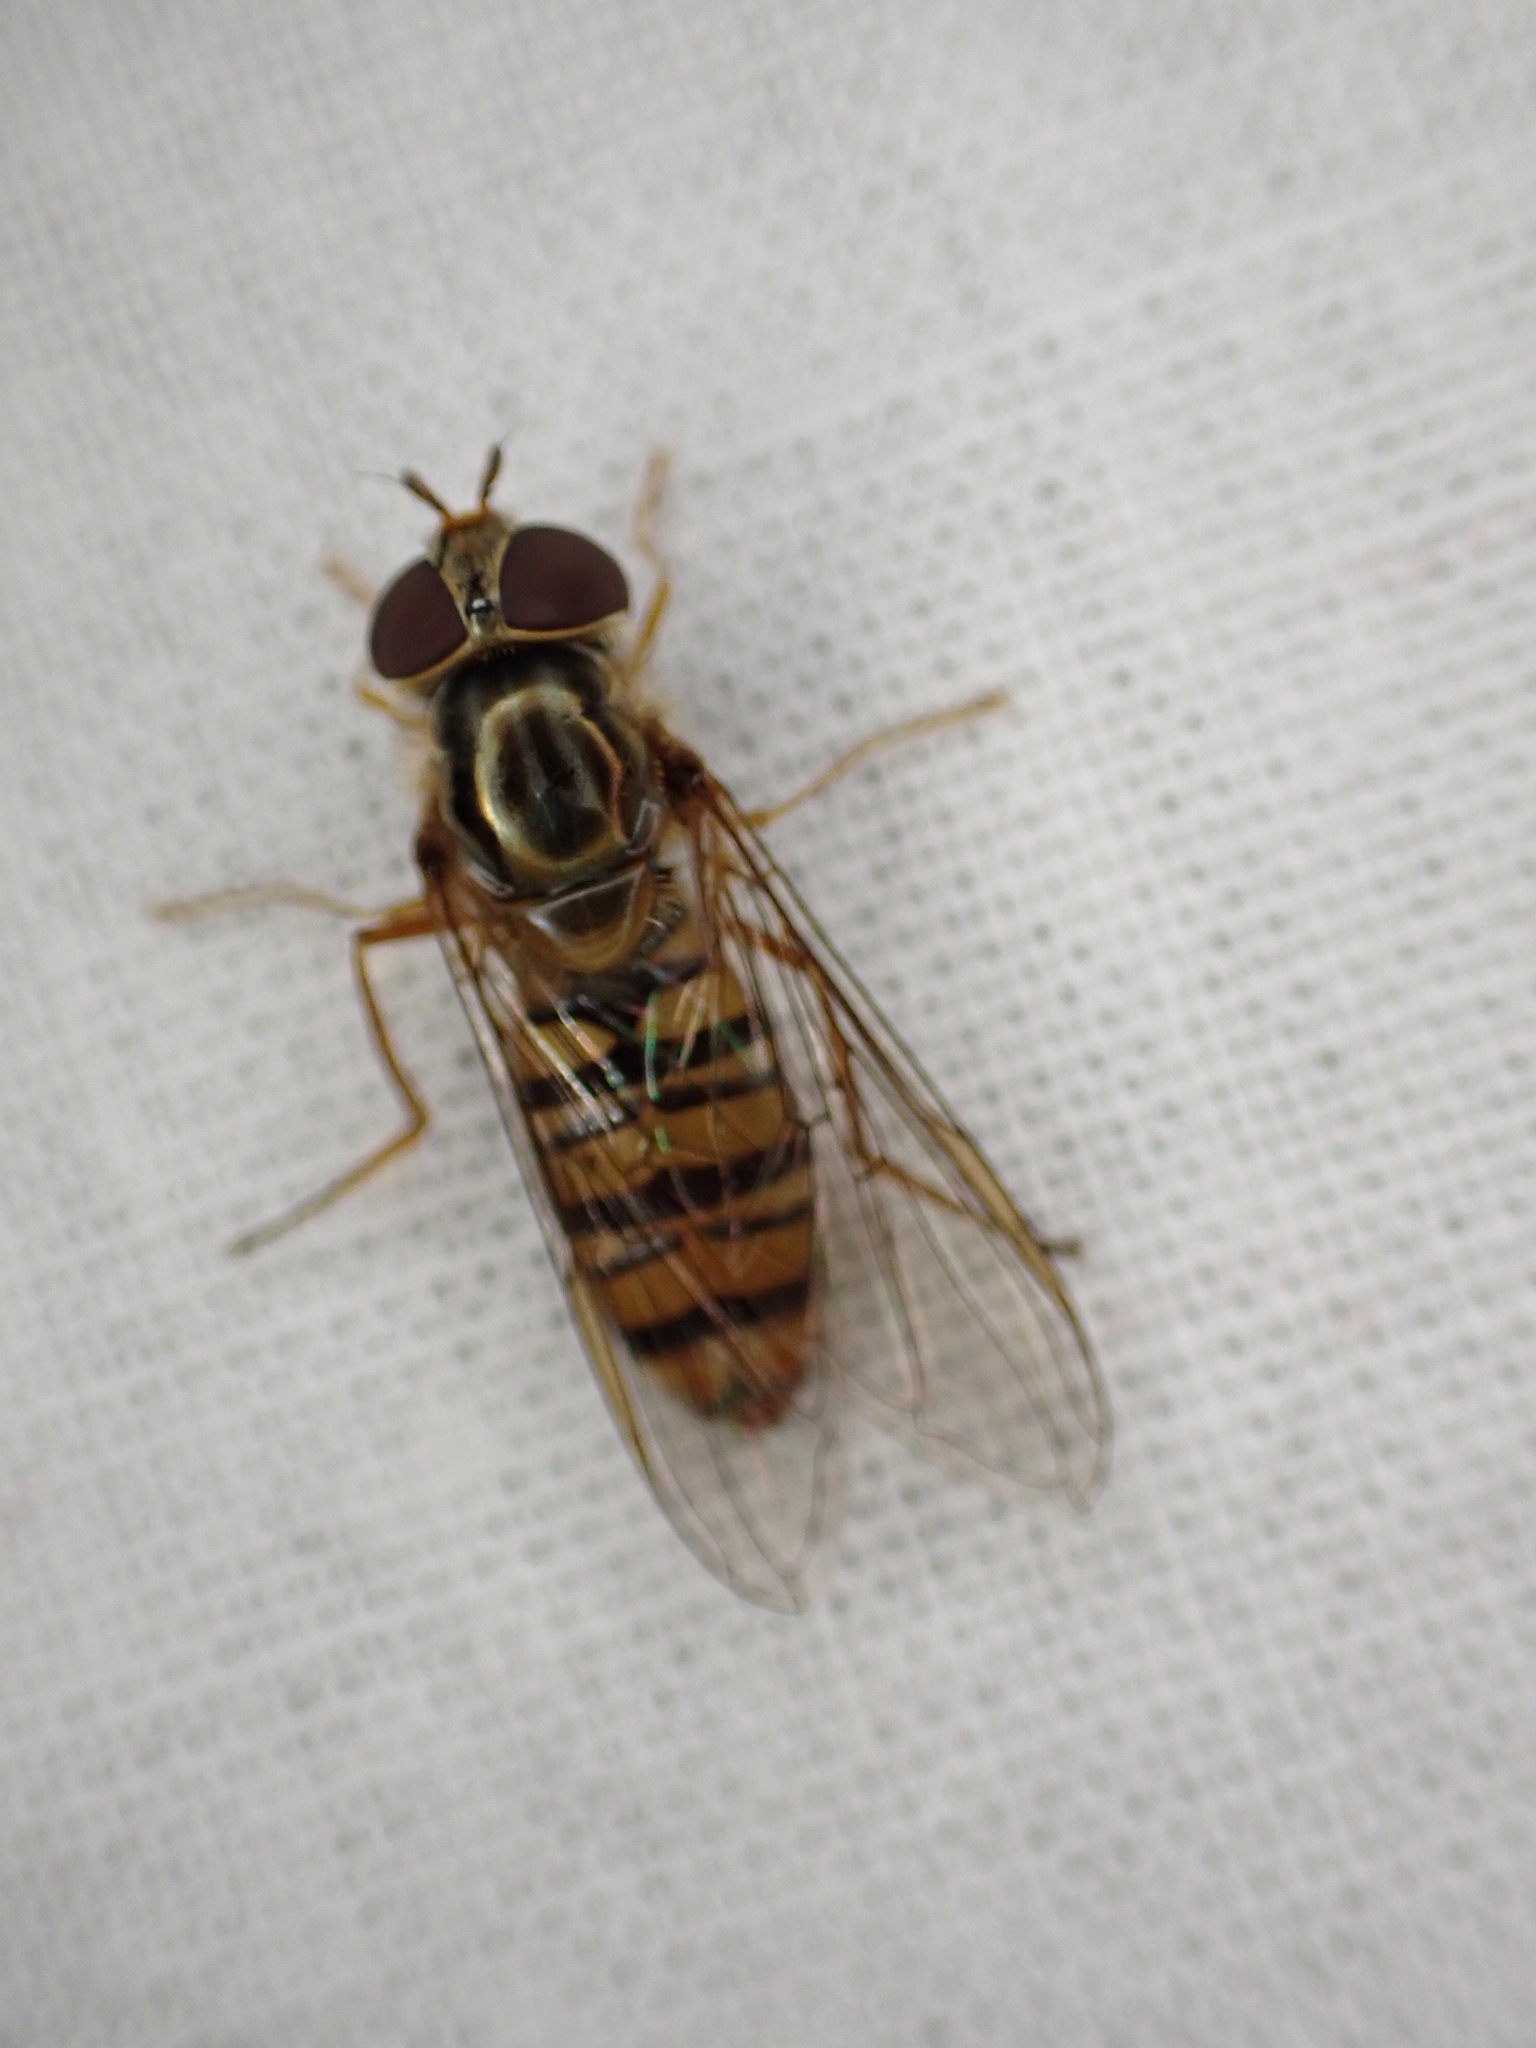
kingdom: Animalia
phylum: Arthropoda
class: Insecta
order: Diptera
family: Syrphidae
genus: Episyrphus
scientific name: Episyrphus balteatus
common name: Marmalade hoverfly
